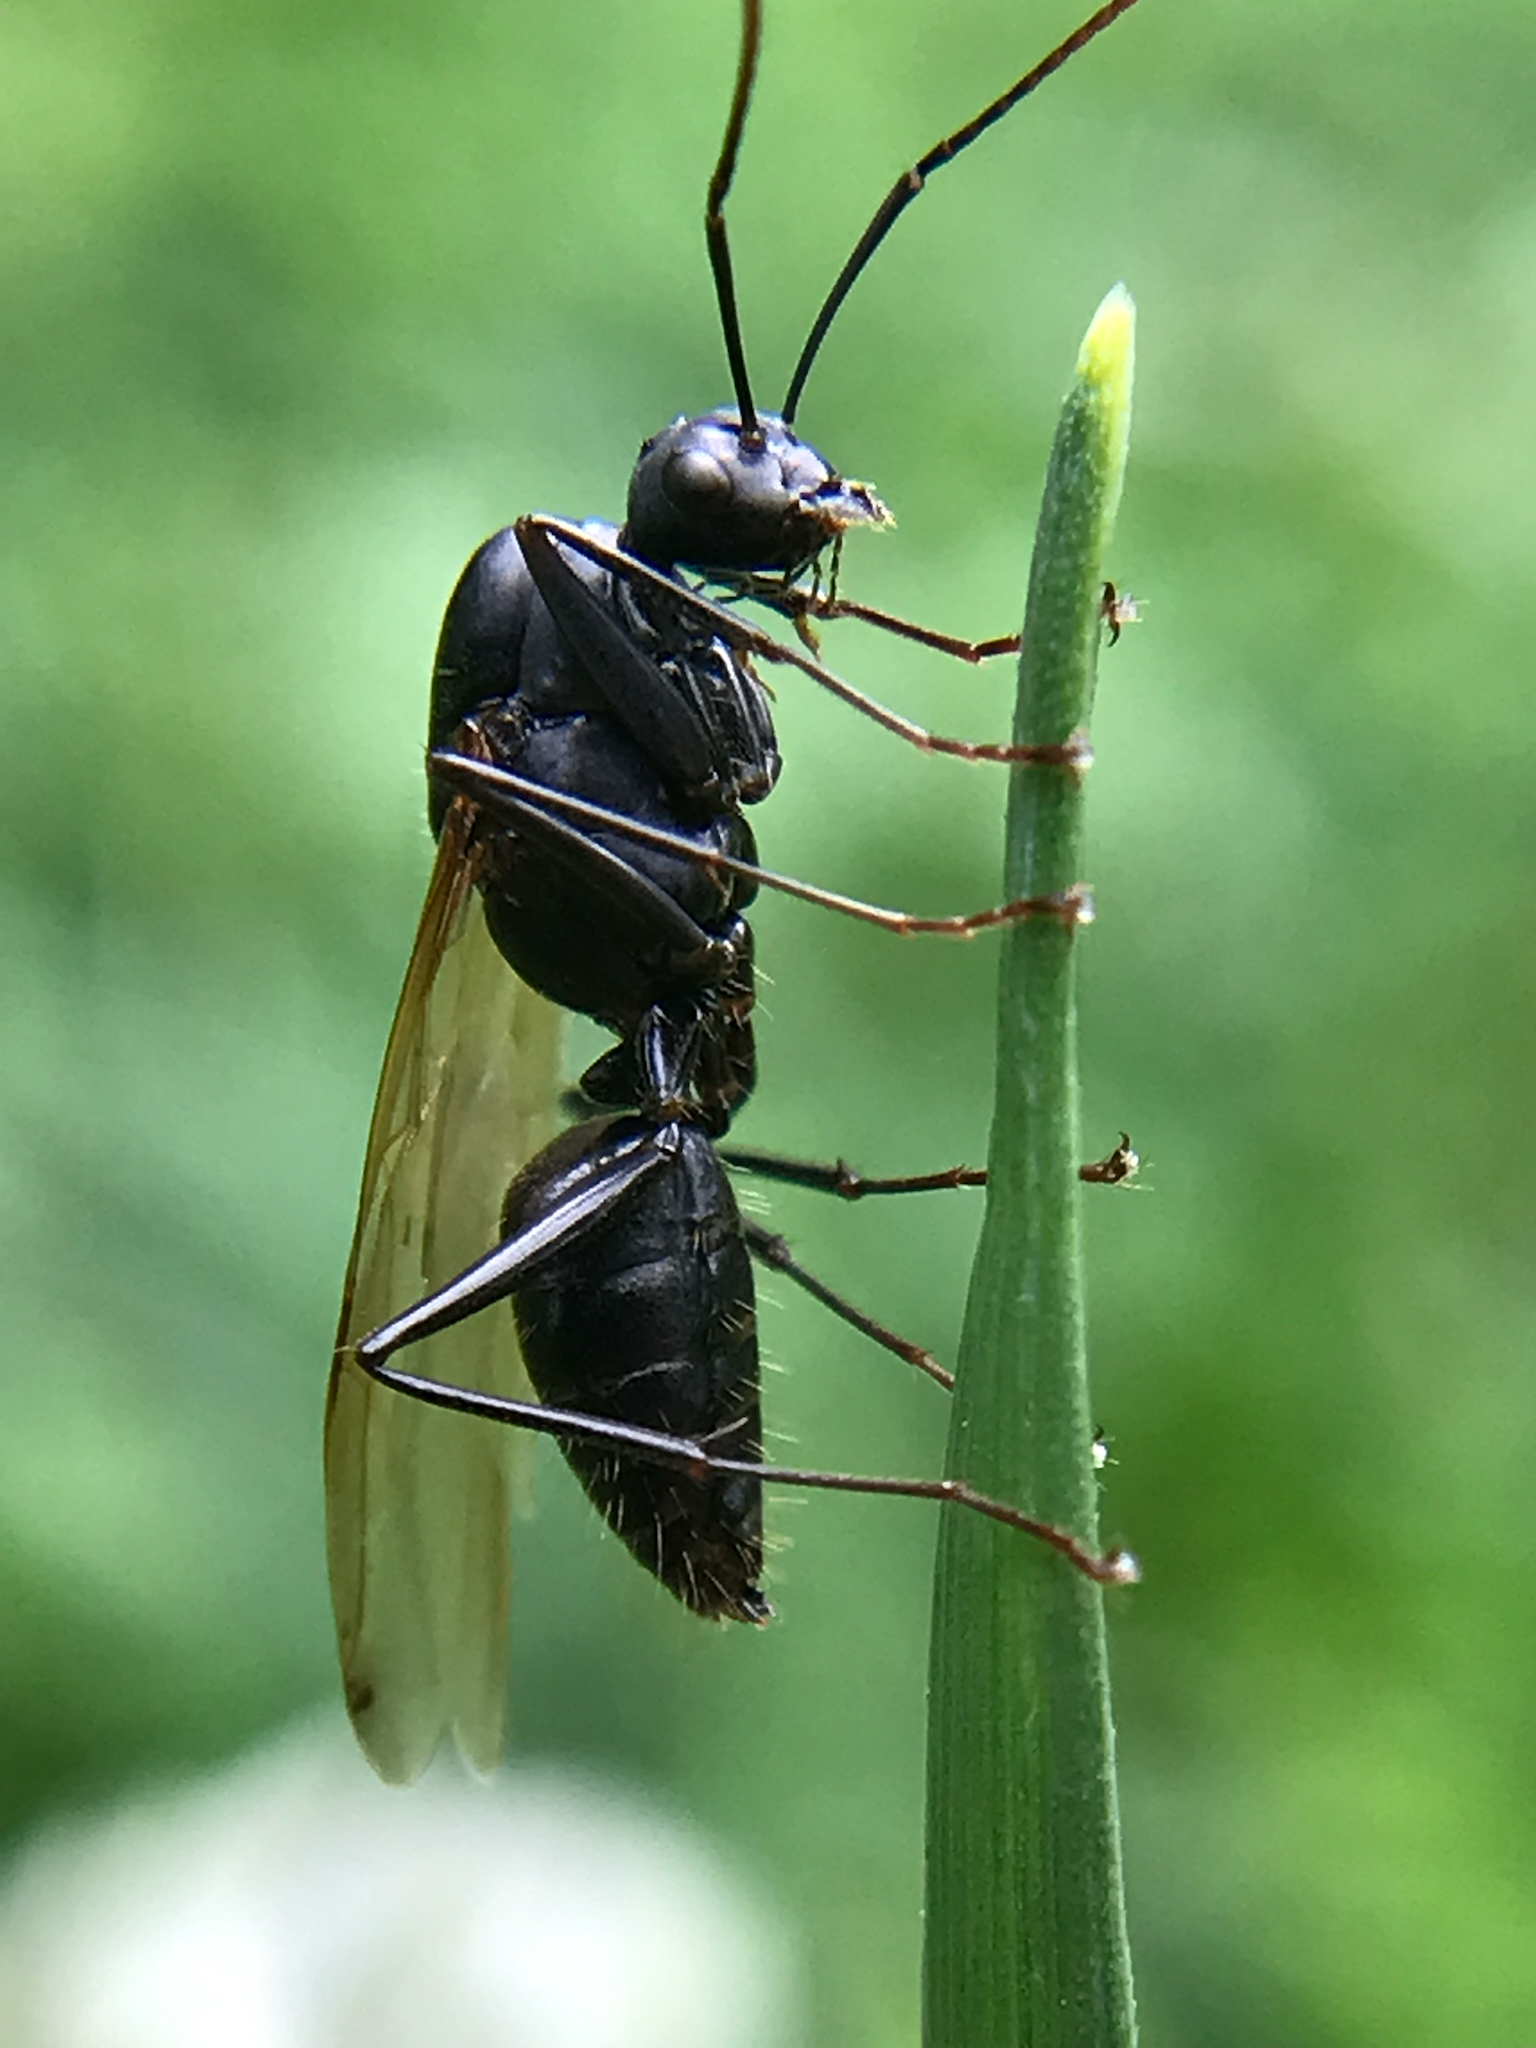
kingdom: Animalia
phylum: Arthropoda
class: Insecta
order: Hymenoptera
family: Formicidae
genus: Camponotus
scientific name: Camponotus
